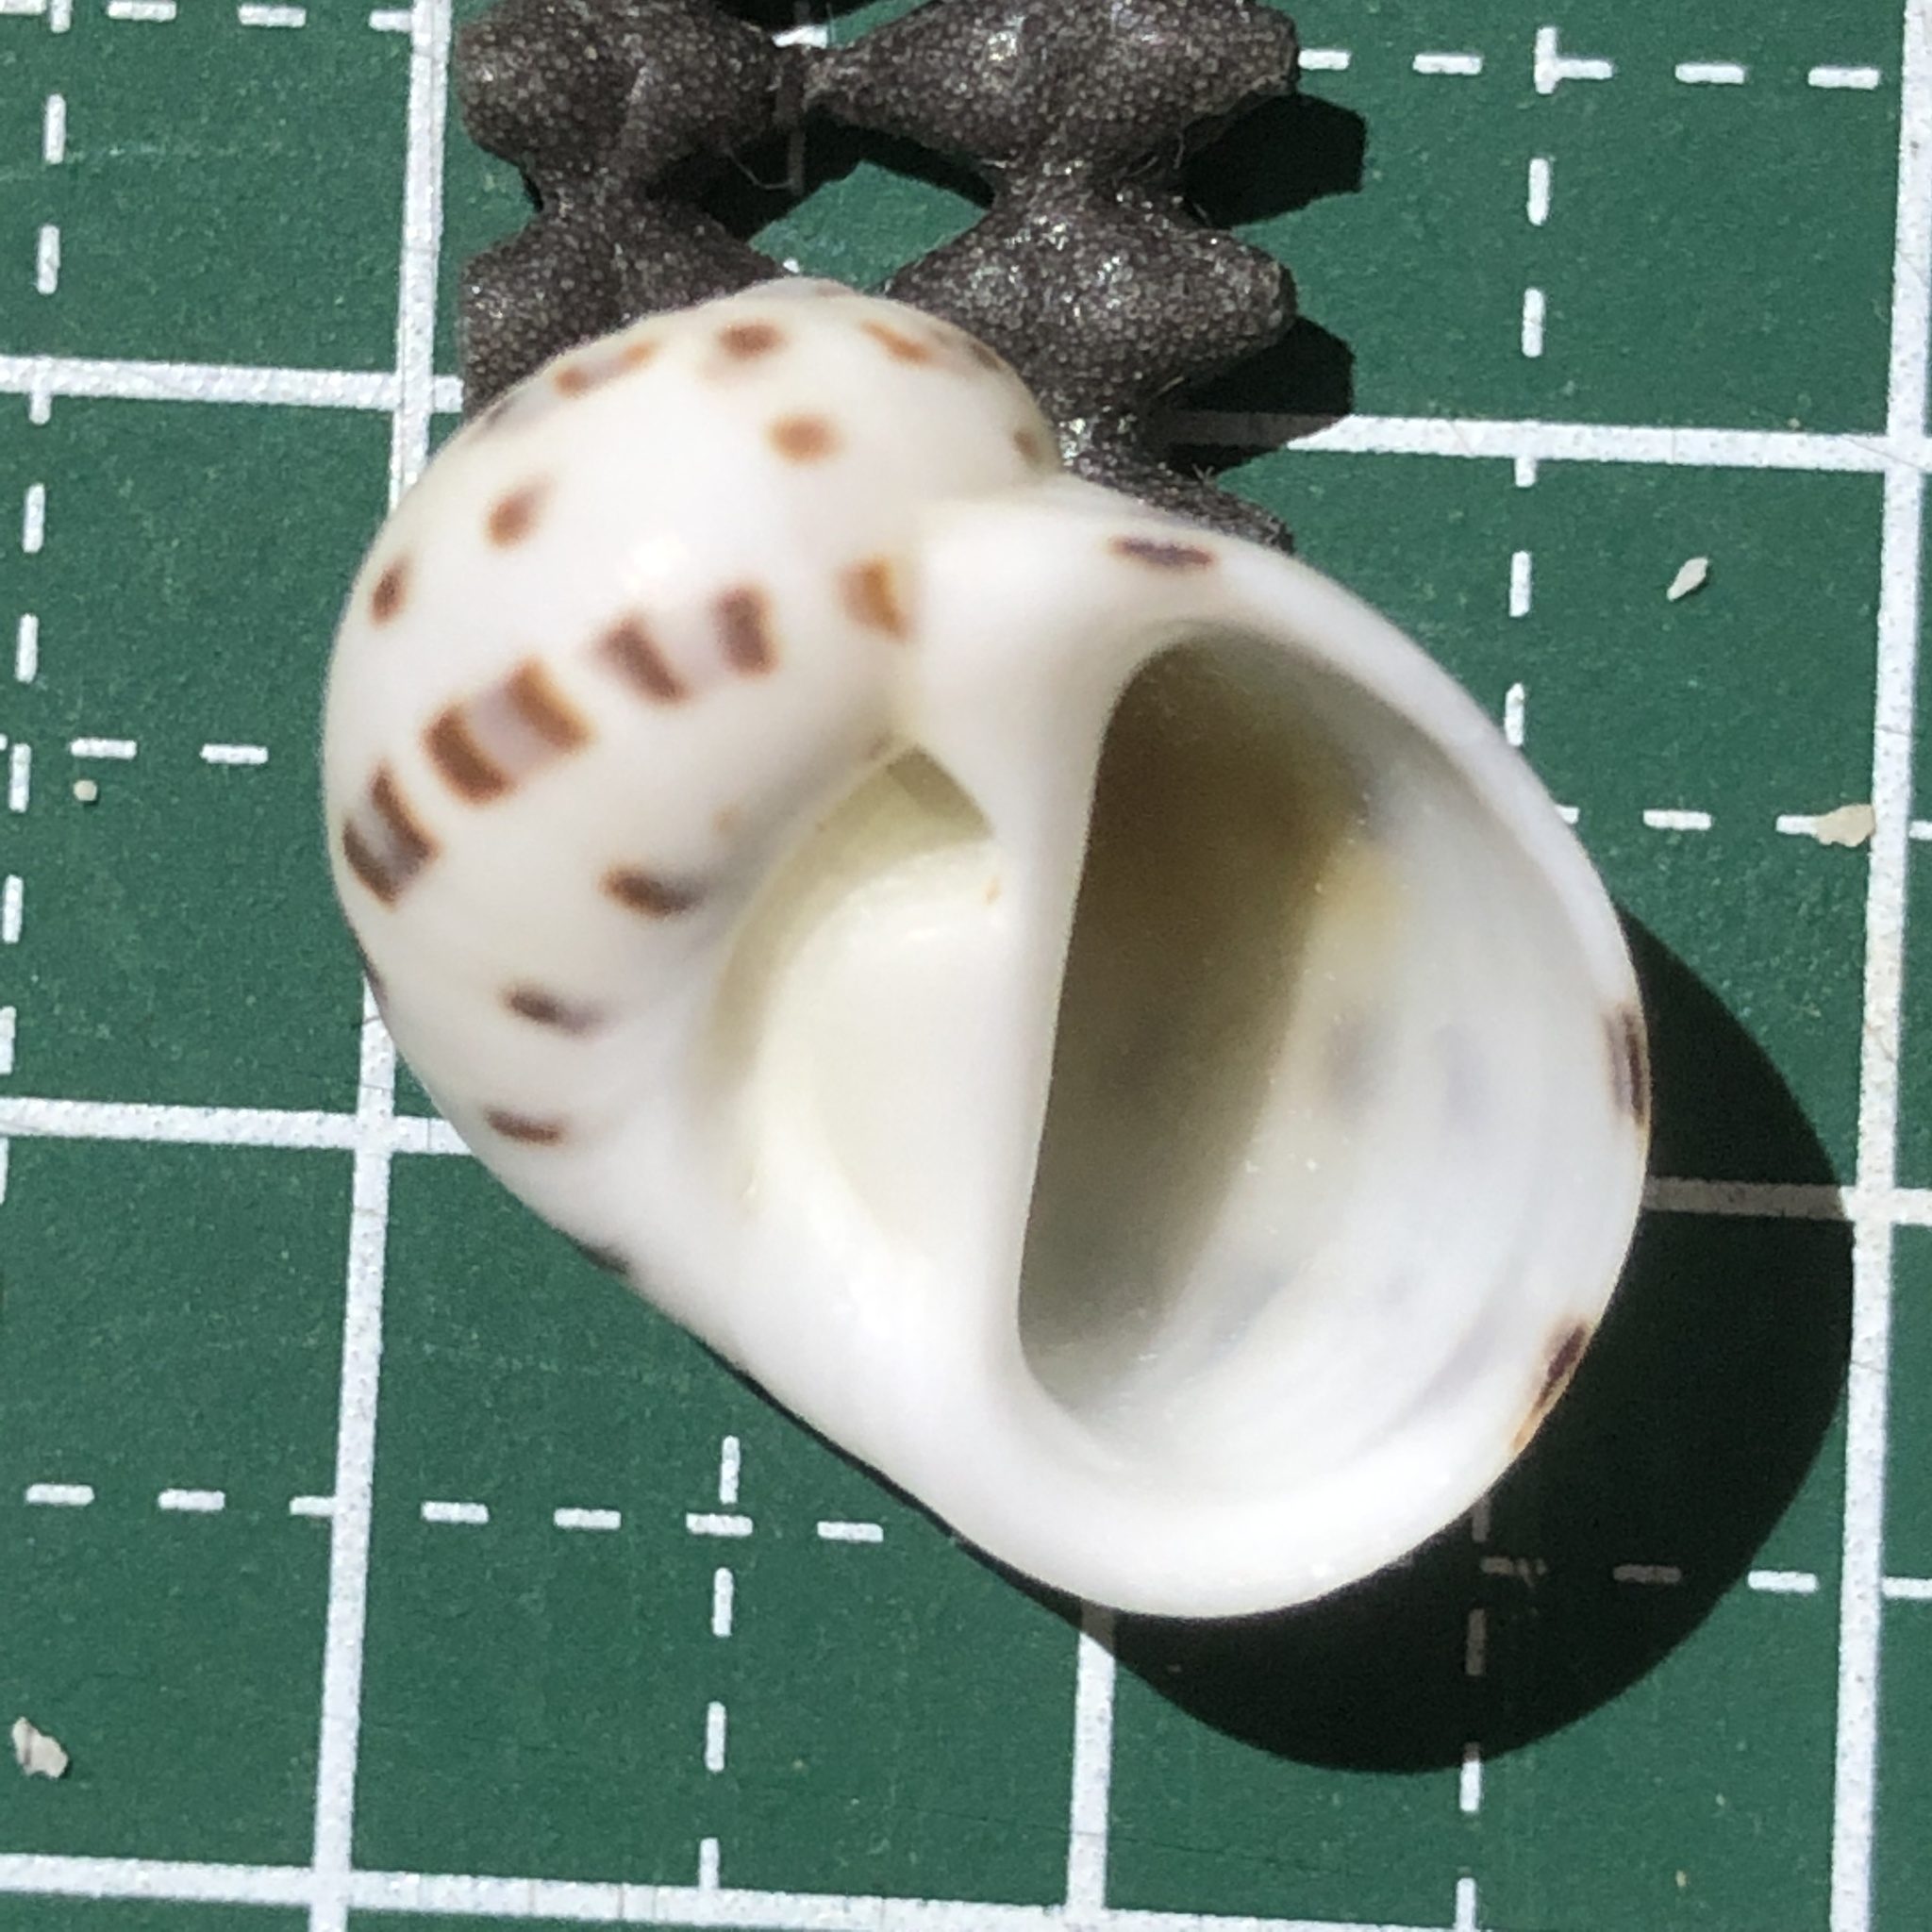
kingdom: Animalia
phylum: Mollusca
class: Gastropoda
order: Littorinimorpha
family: Naticidae
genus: Naticarius
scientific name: Naticarius onca
